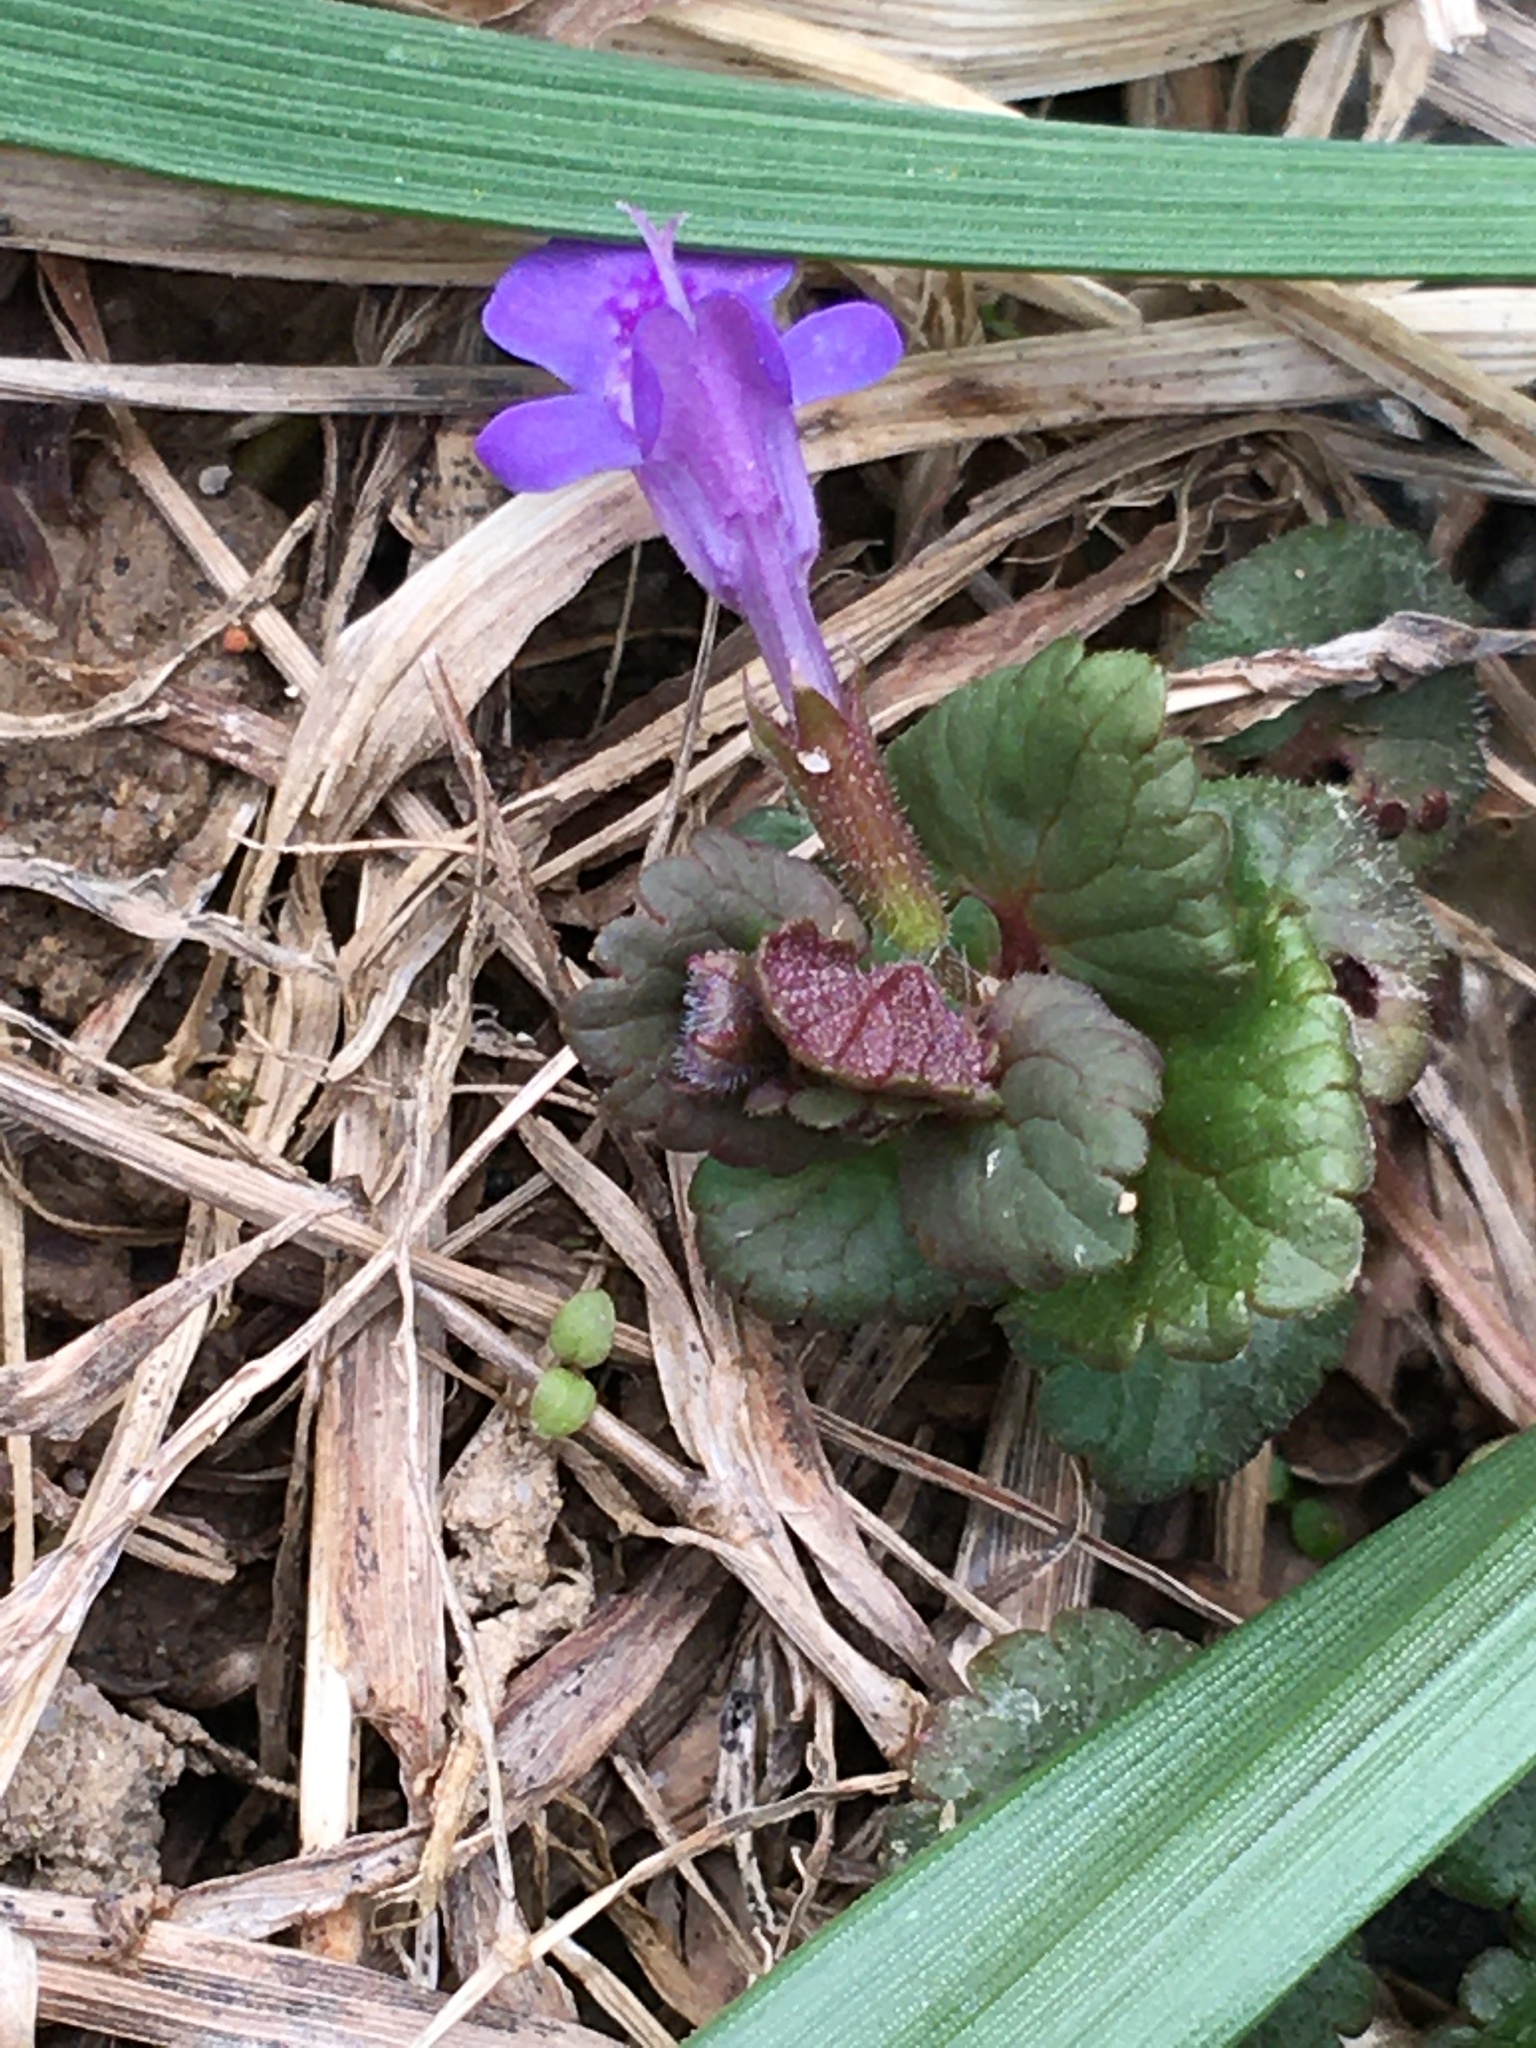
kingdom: Plantae
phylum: Tracheophyta
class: Magnoliopsida
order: Lamiales
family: Lamiaceae
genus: Glechoma
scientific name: Glechoma hederacea
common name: Ground ivy
